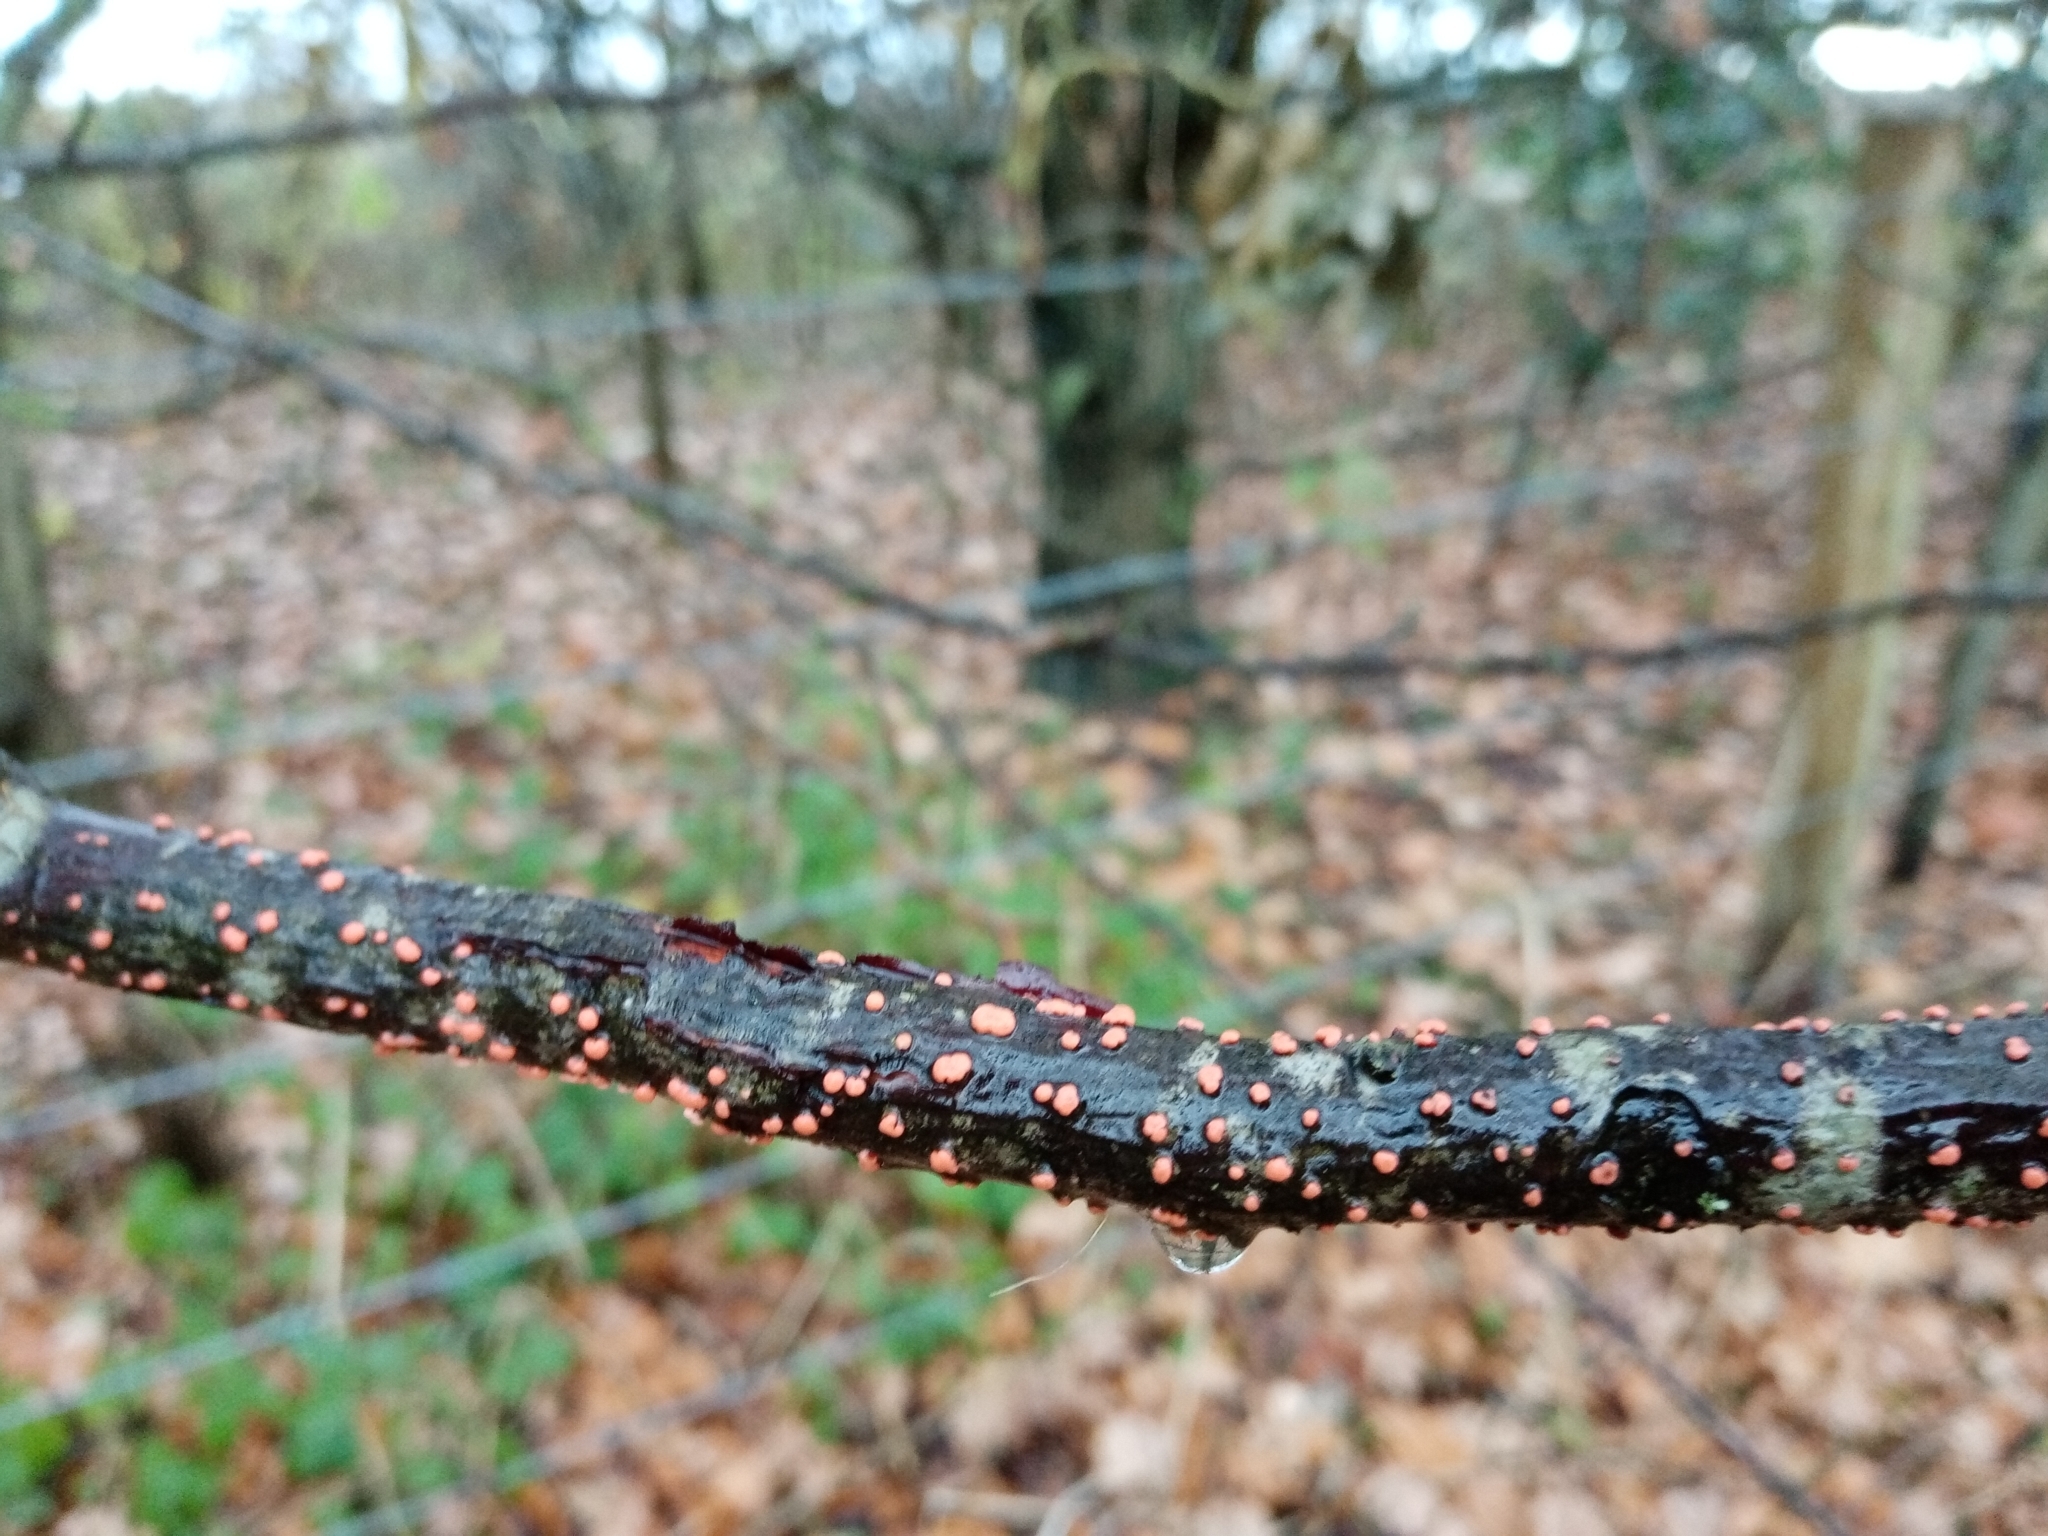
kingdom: Fungi
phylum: Ascomycota
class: Sordariomycetes
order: Hypocreales
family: Nectriaceae
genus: Nectria
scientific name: Nectria cinnabarina
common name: Coral spot
